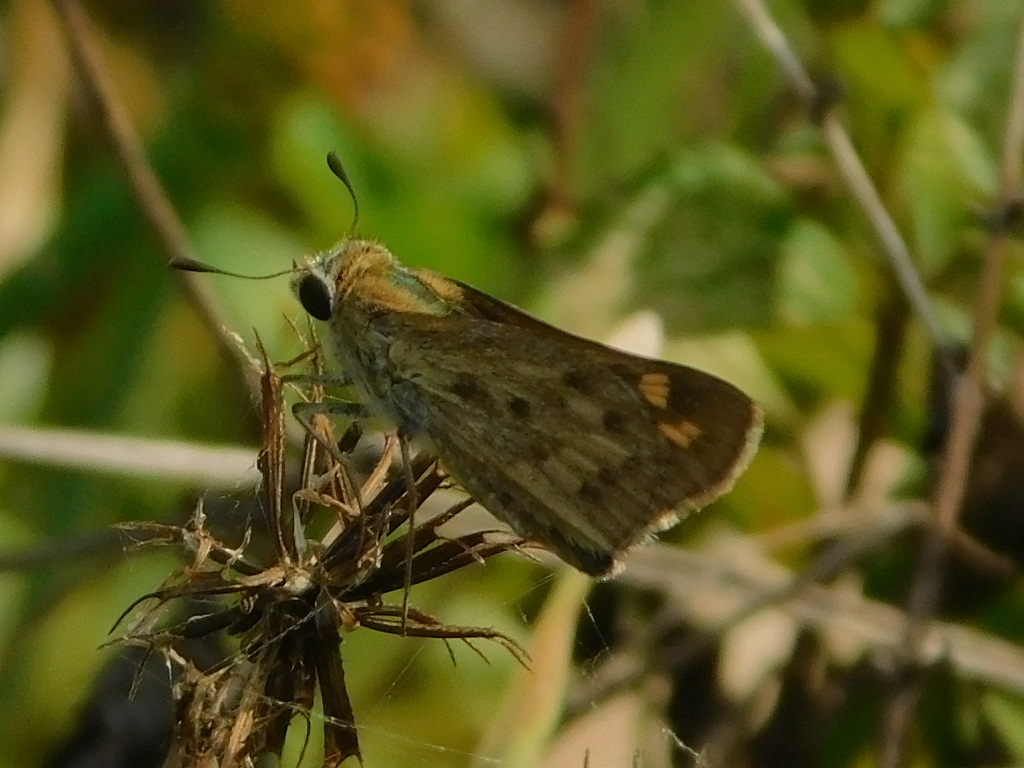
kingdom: Animalia
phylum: Arthropoda
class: Insecta
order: Lepidoptera
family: Hesperiidae
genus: Hylephila
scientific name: Hylephila phyleus
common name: Fiery skipper
